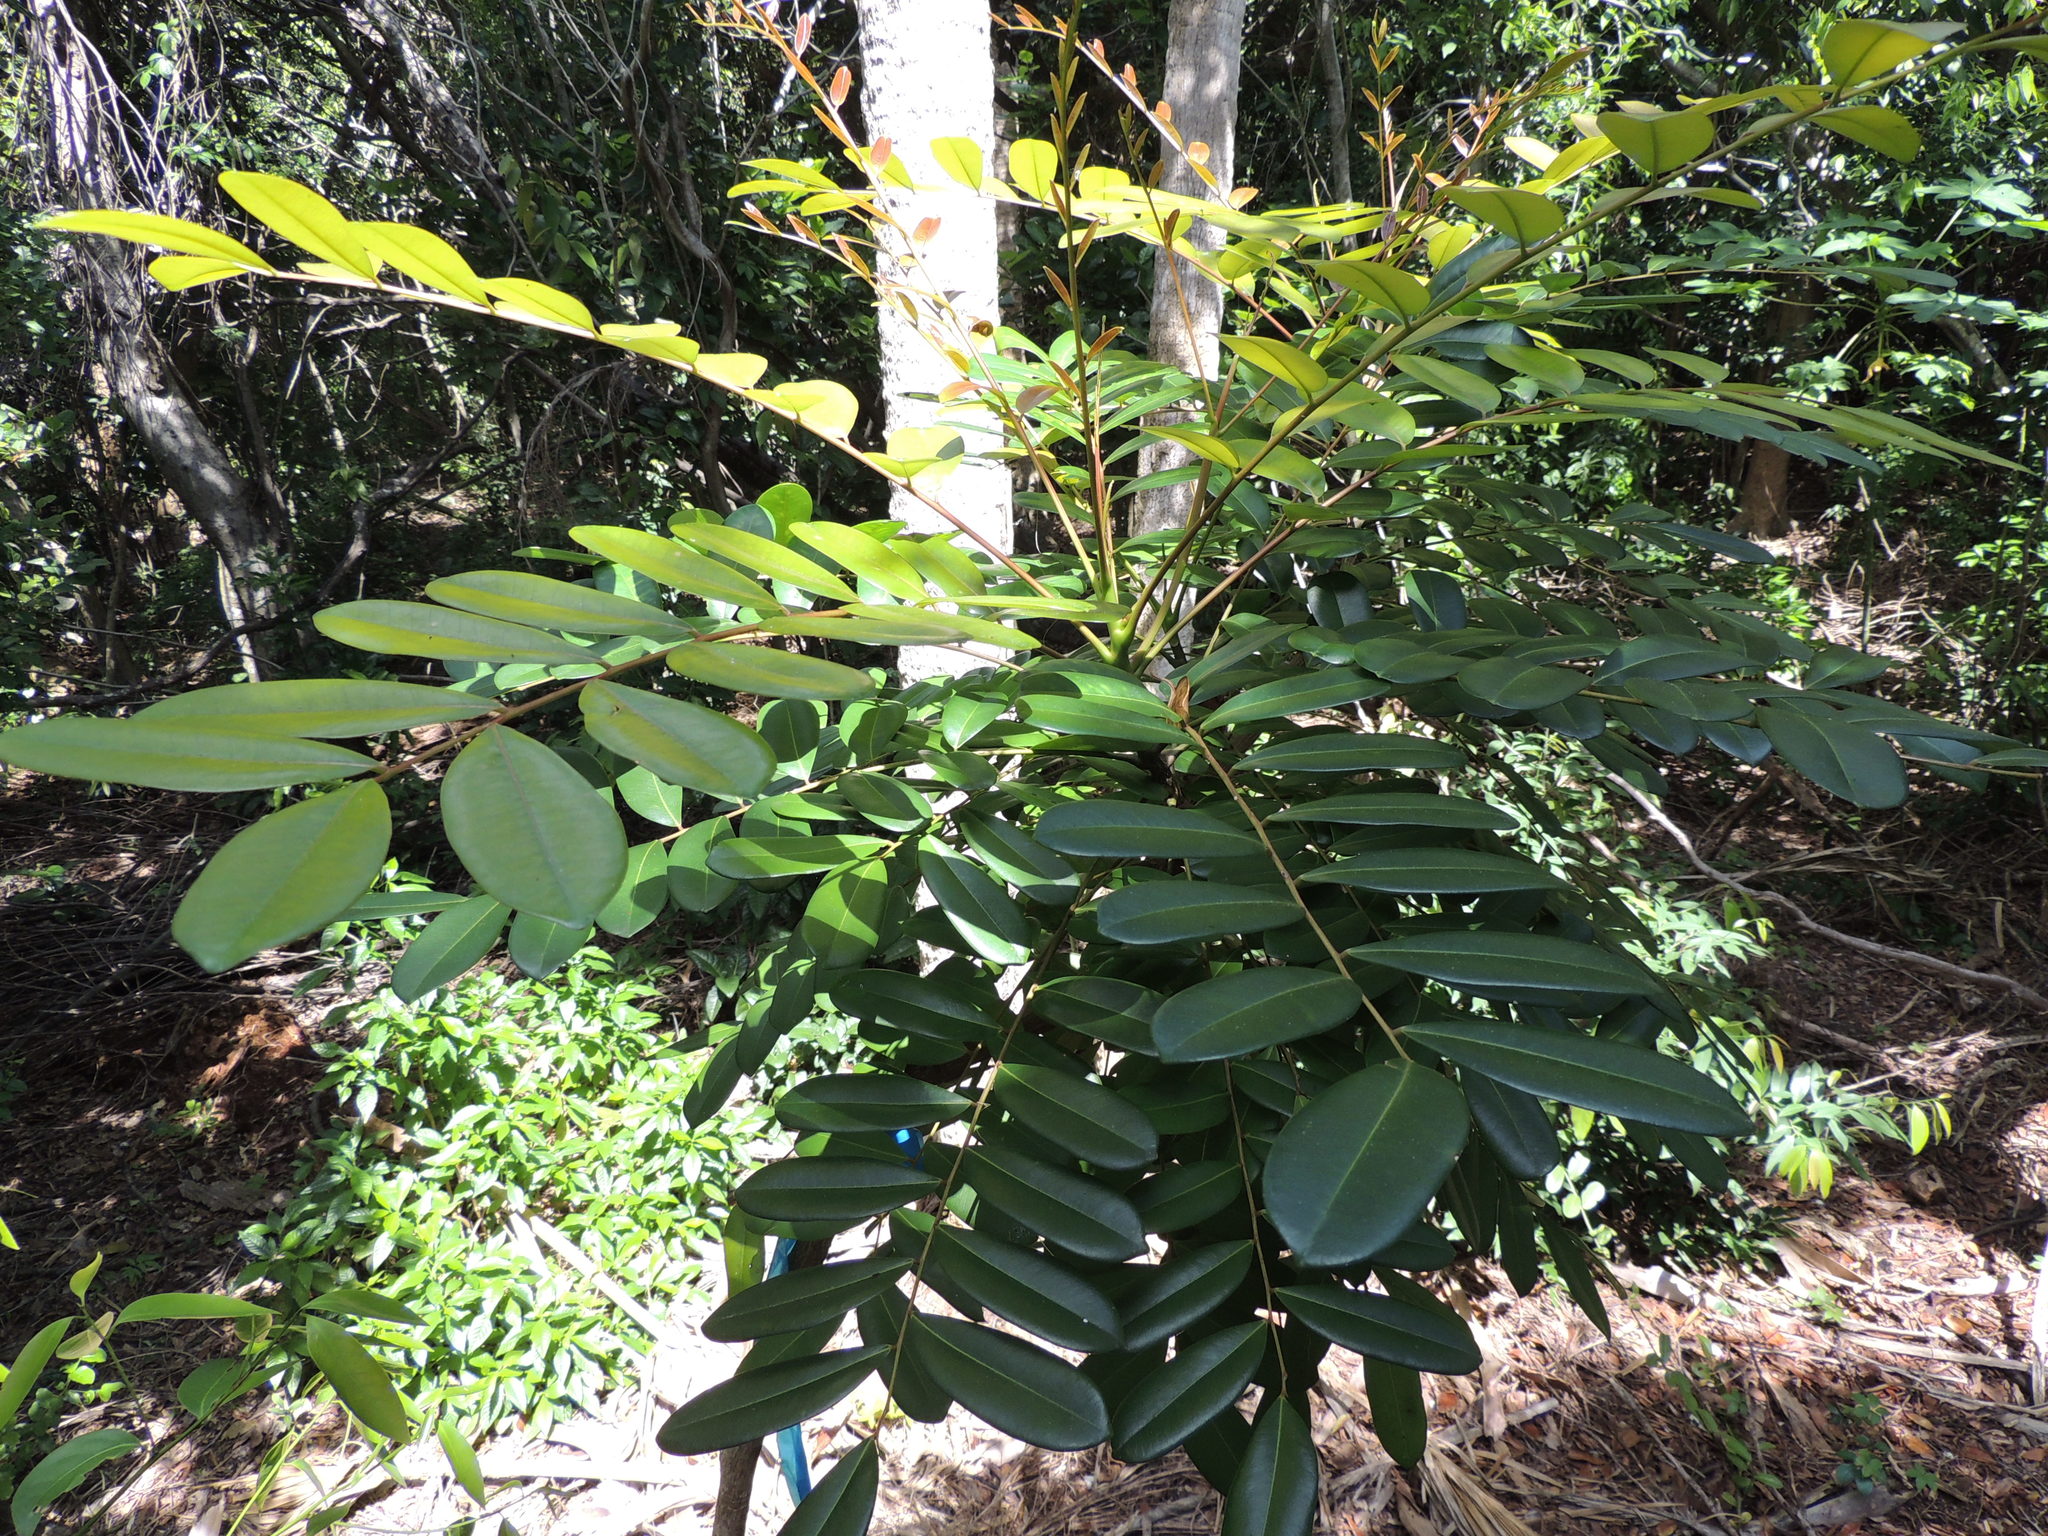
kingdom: Plantae
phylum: Tracheophyta
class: Magnoliopsida
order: Sapindales
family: Simaroubaceae
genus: Simarouba
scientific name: Simarouba glauca
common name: Dysentery-bark
